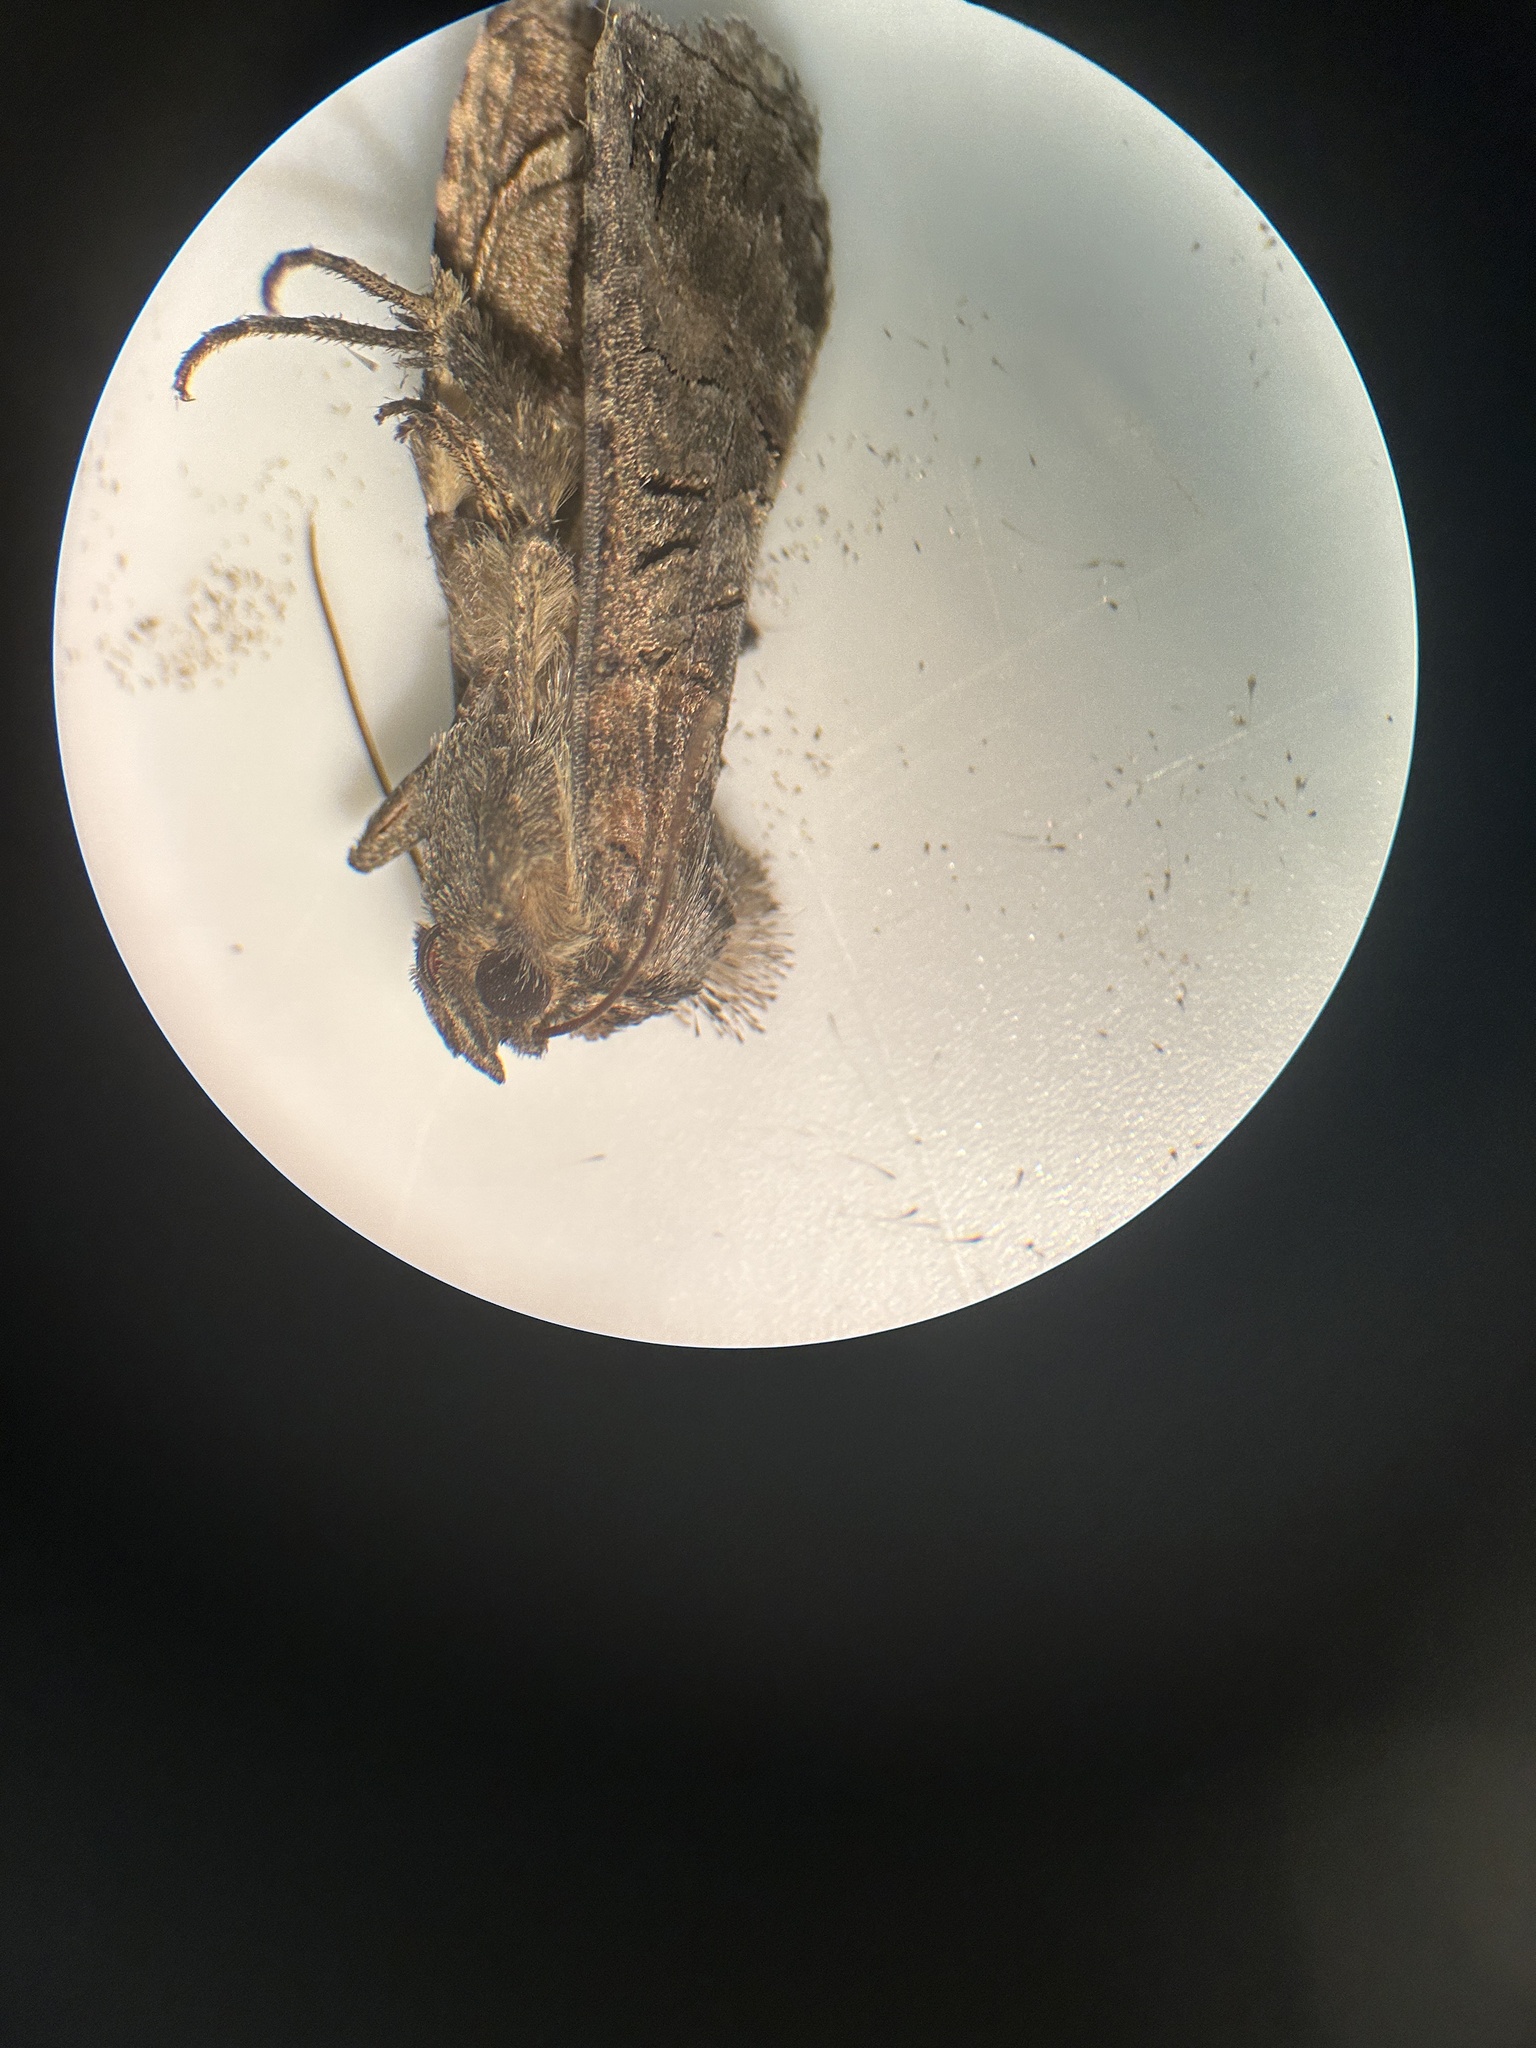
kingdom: Animalia
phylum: Arthropoda
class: Insecta
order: Lepidoptera
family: Noctuidae
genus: Abrostola
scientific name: Abrostola urentis
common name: Spectacled nettle moth
